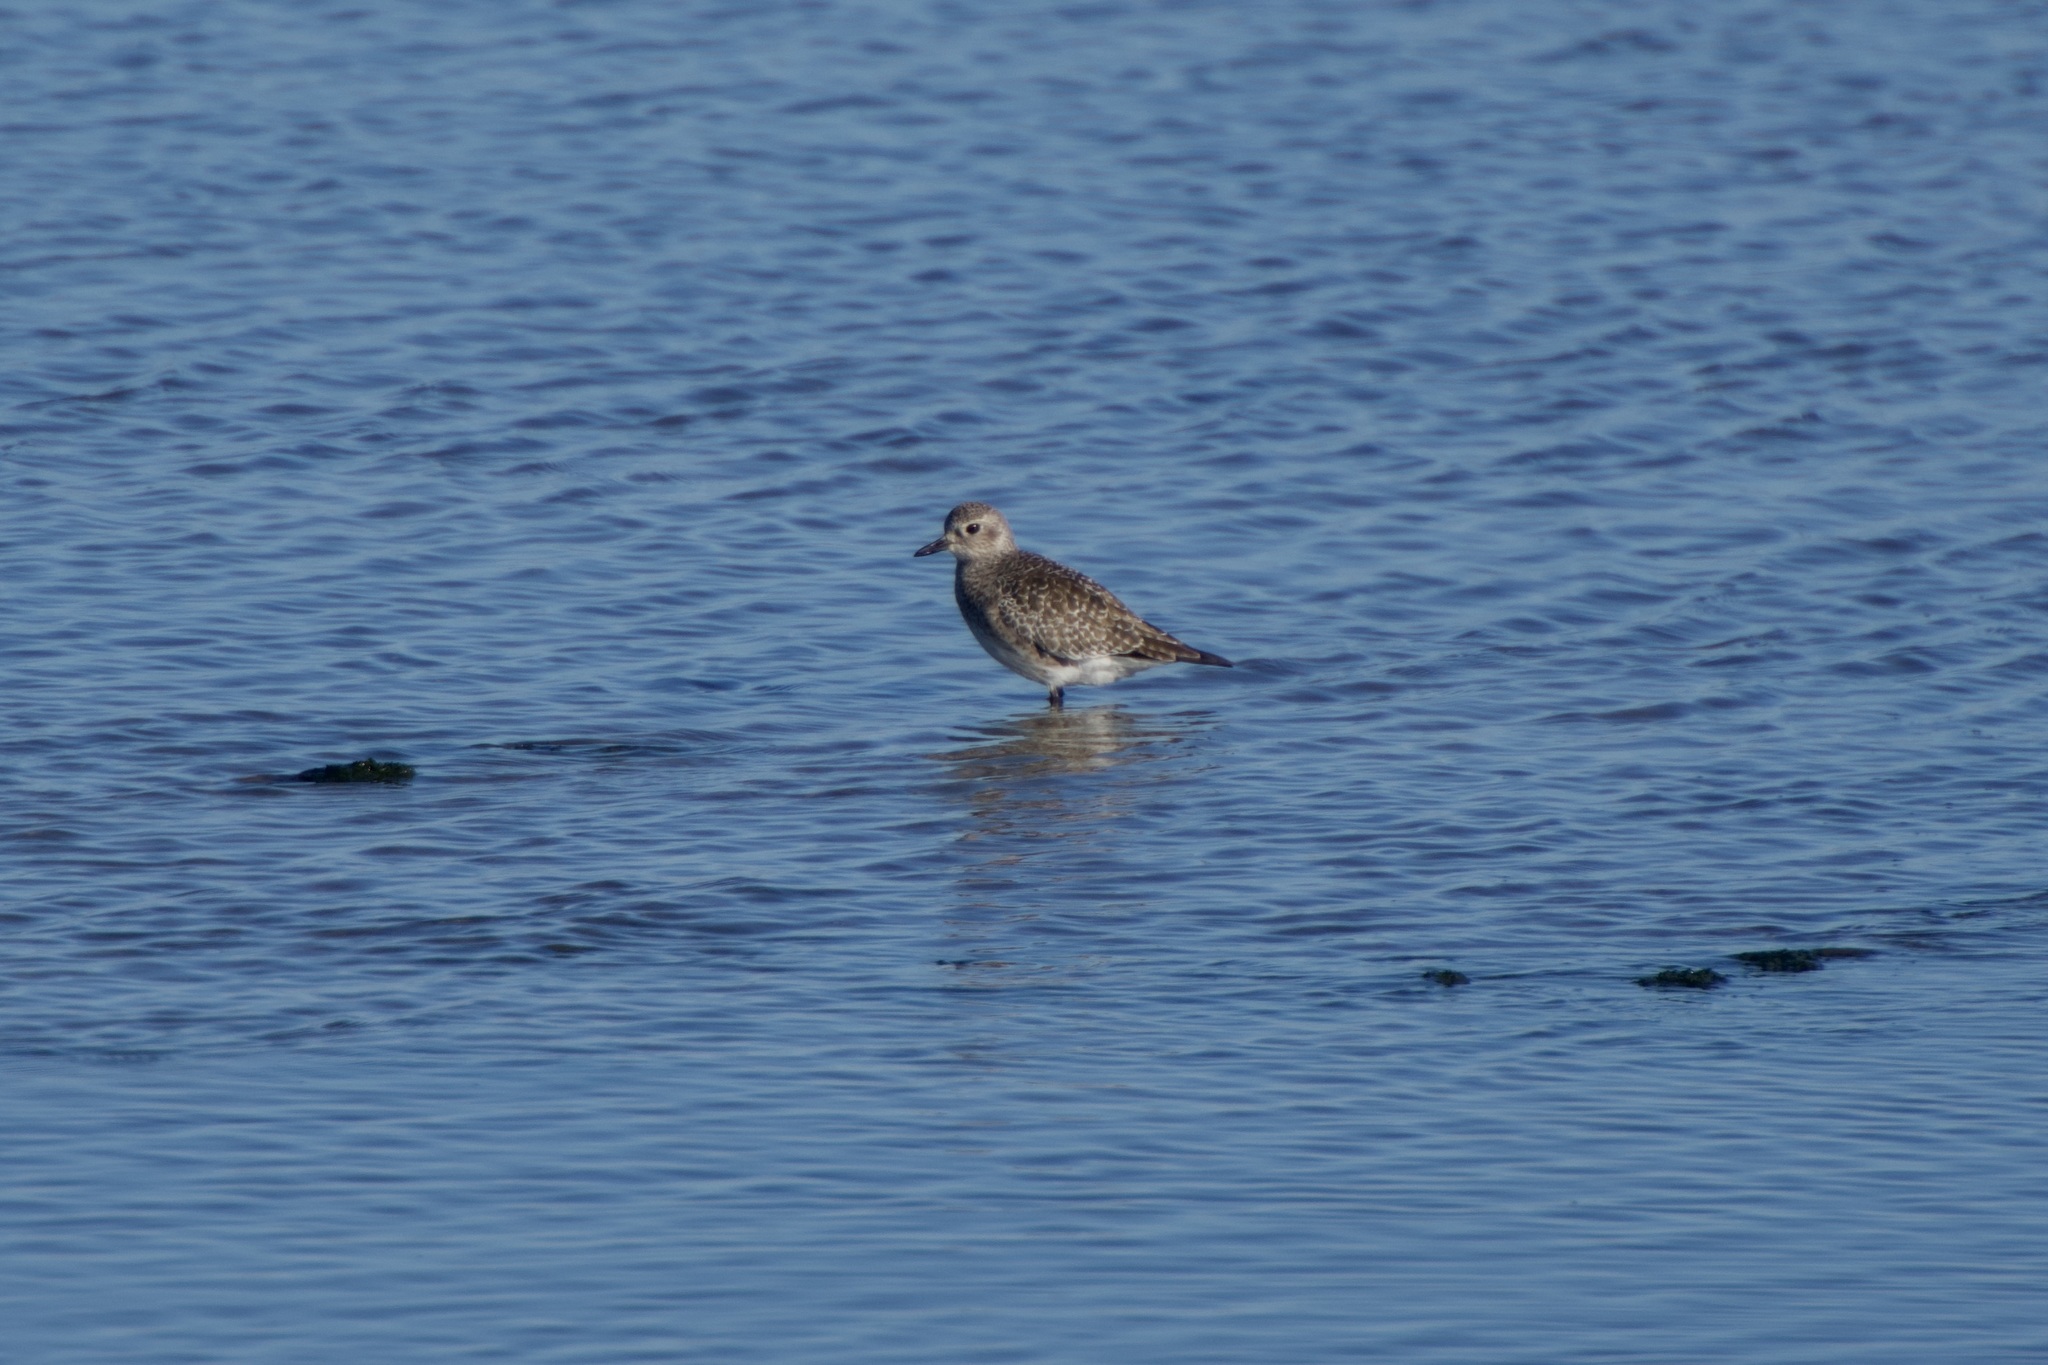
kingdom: Animalia
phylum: Chordata
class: Aves
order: Charadriiformes
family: Charadriidae
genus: Pluvialis
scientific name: Pluvialis squatarola
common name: Grey plover
